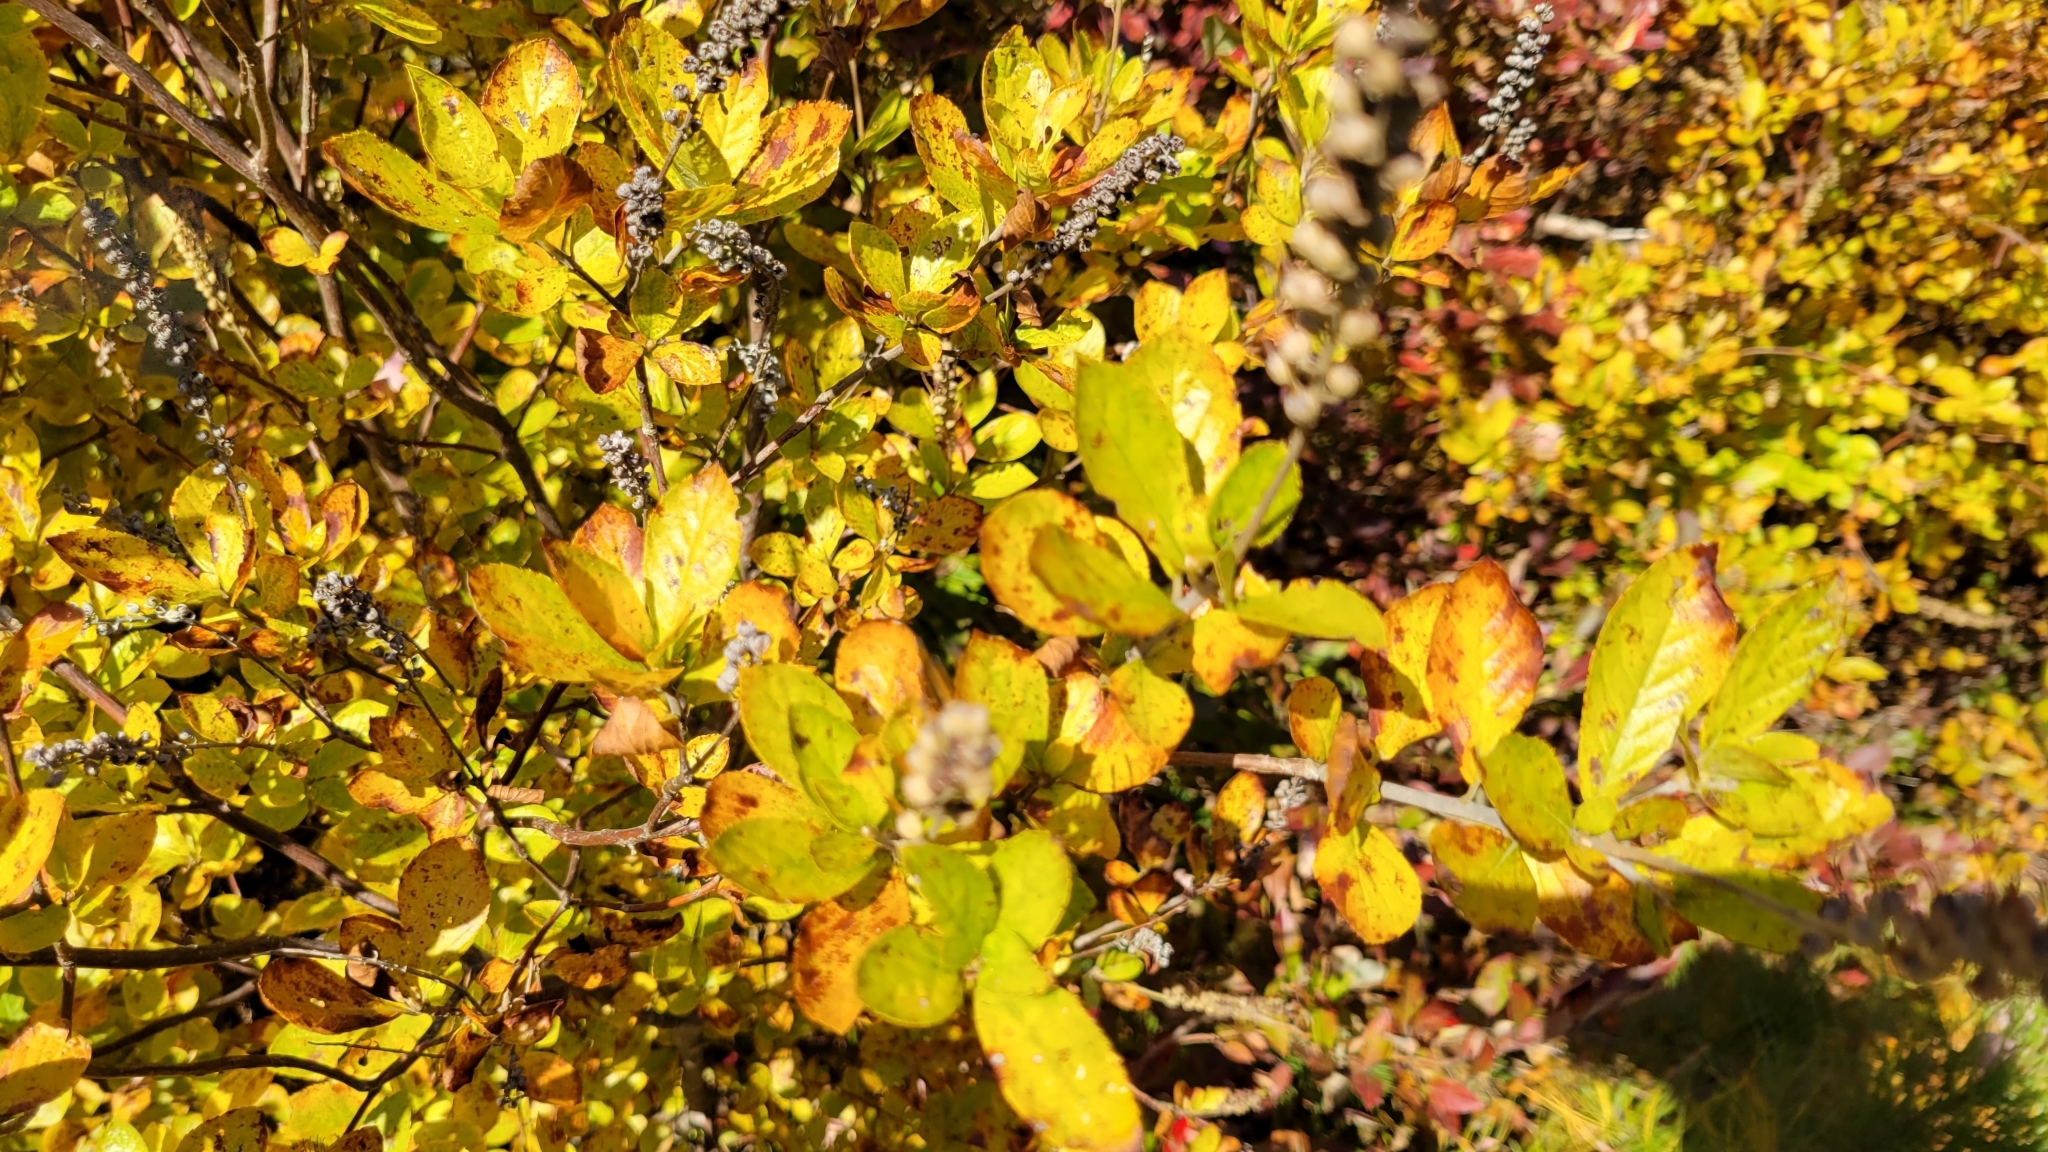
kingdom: Plantae
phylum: Tracheophyta
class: Magnoliopsida
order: Ericales
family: Clethraceae
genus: Clethra
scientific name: Clethra alnifolia
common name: Sweet pepperbush
